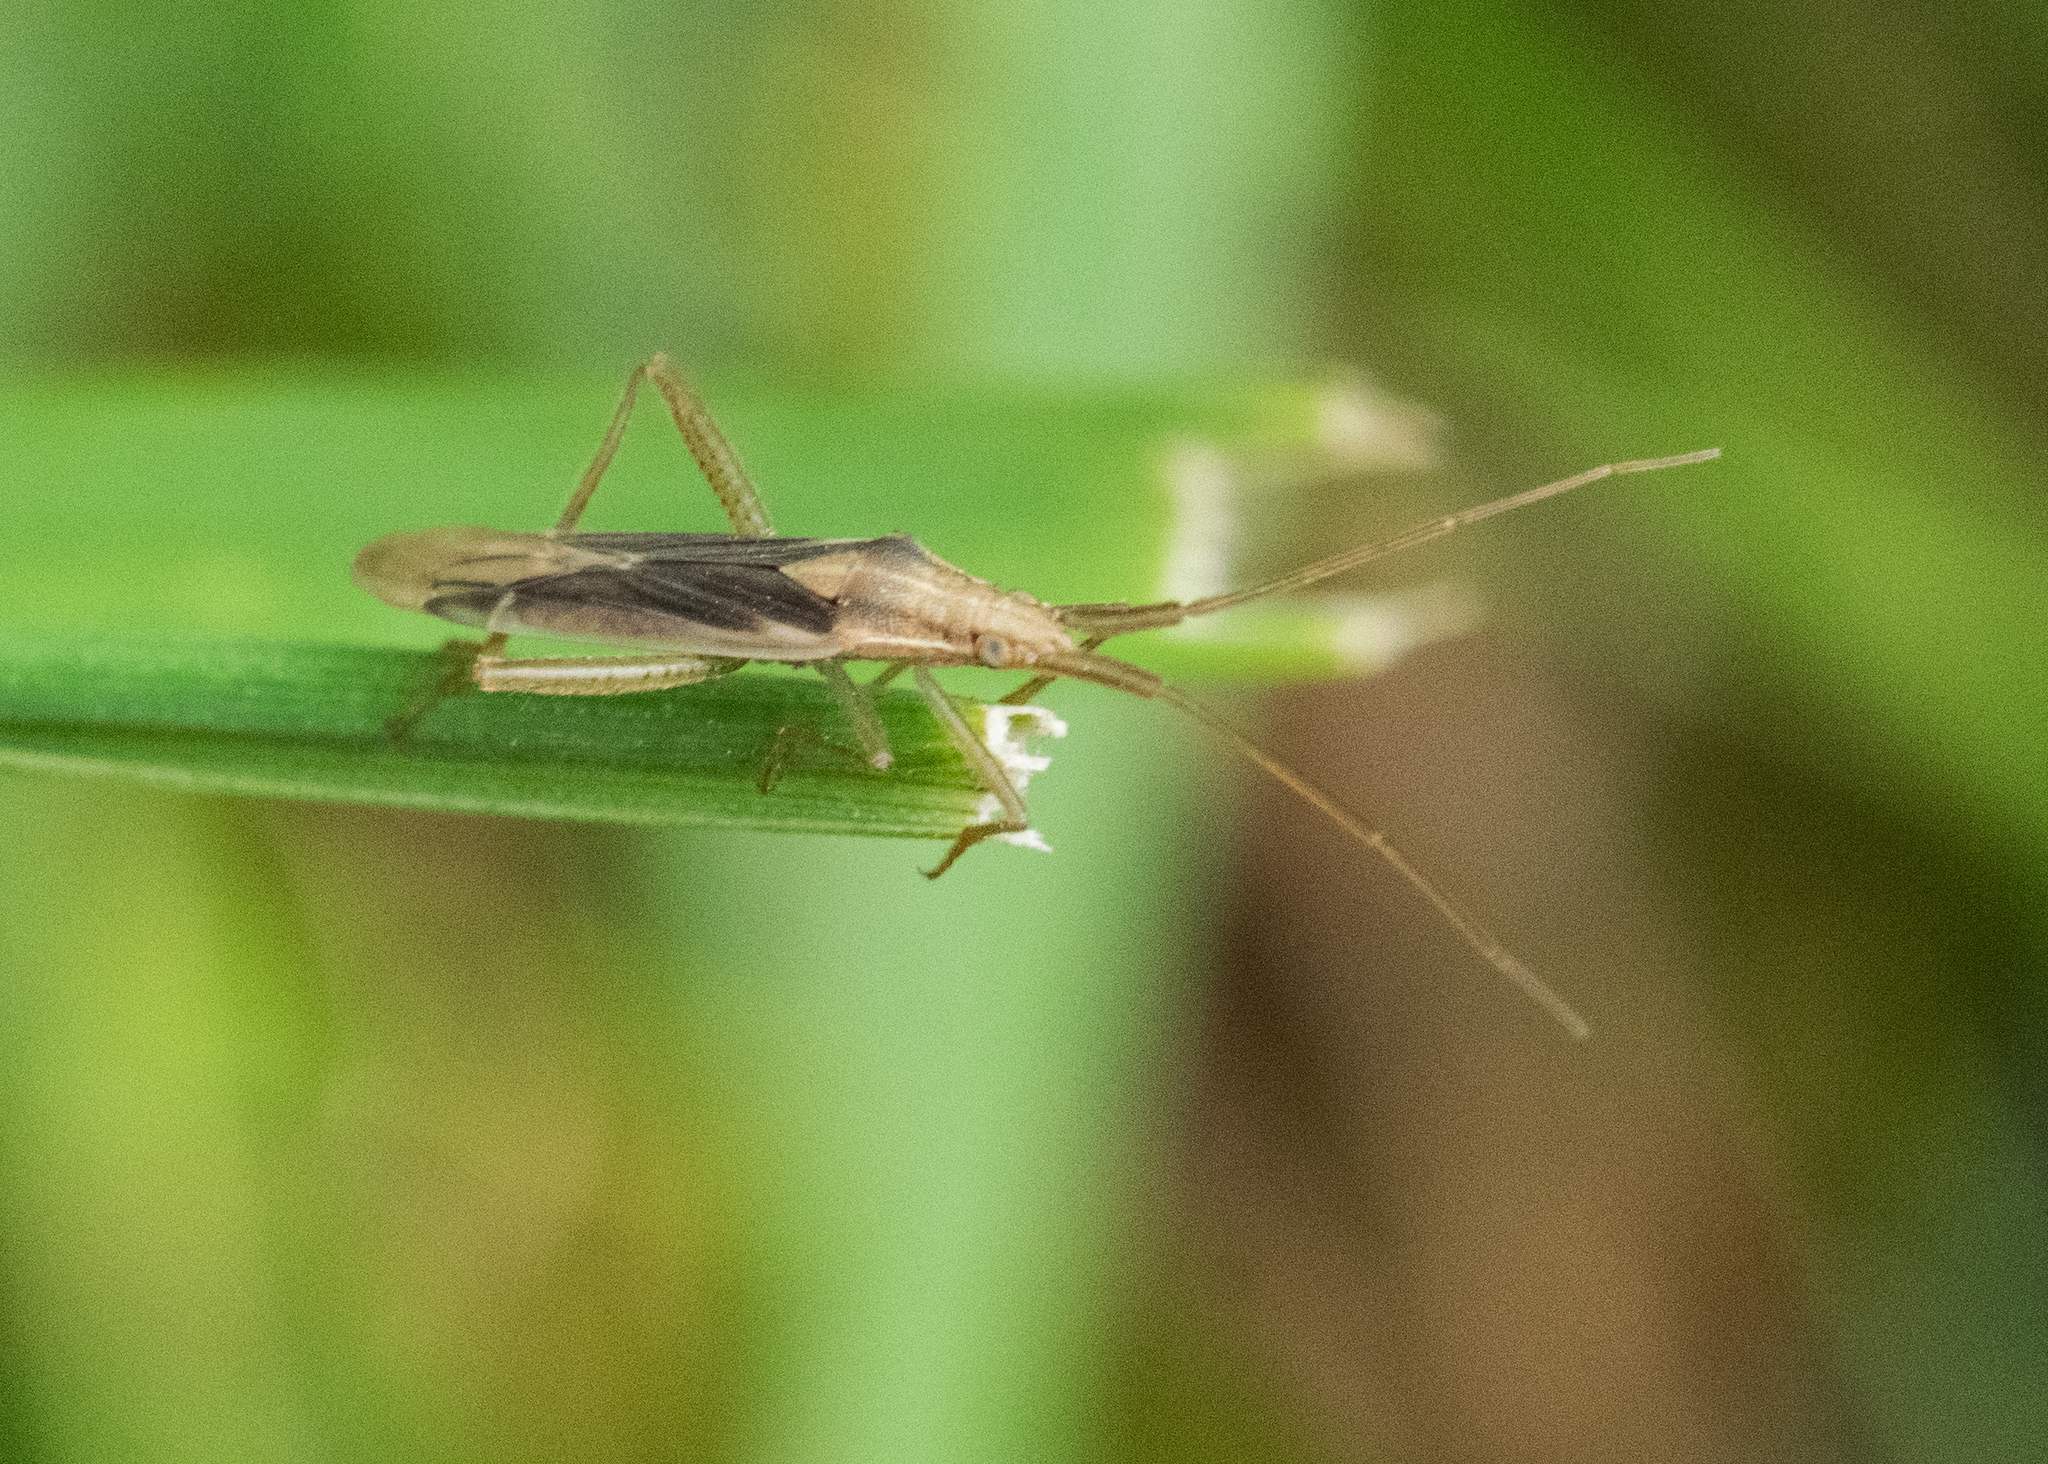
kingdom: Animalia
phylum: Arthropoda
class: Insecta
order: Hemiptera
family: Miridae
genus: Stenodema
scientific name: Stenodema laevigata
